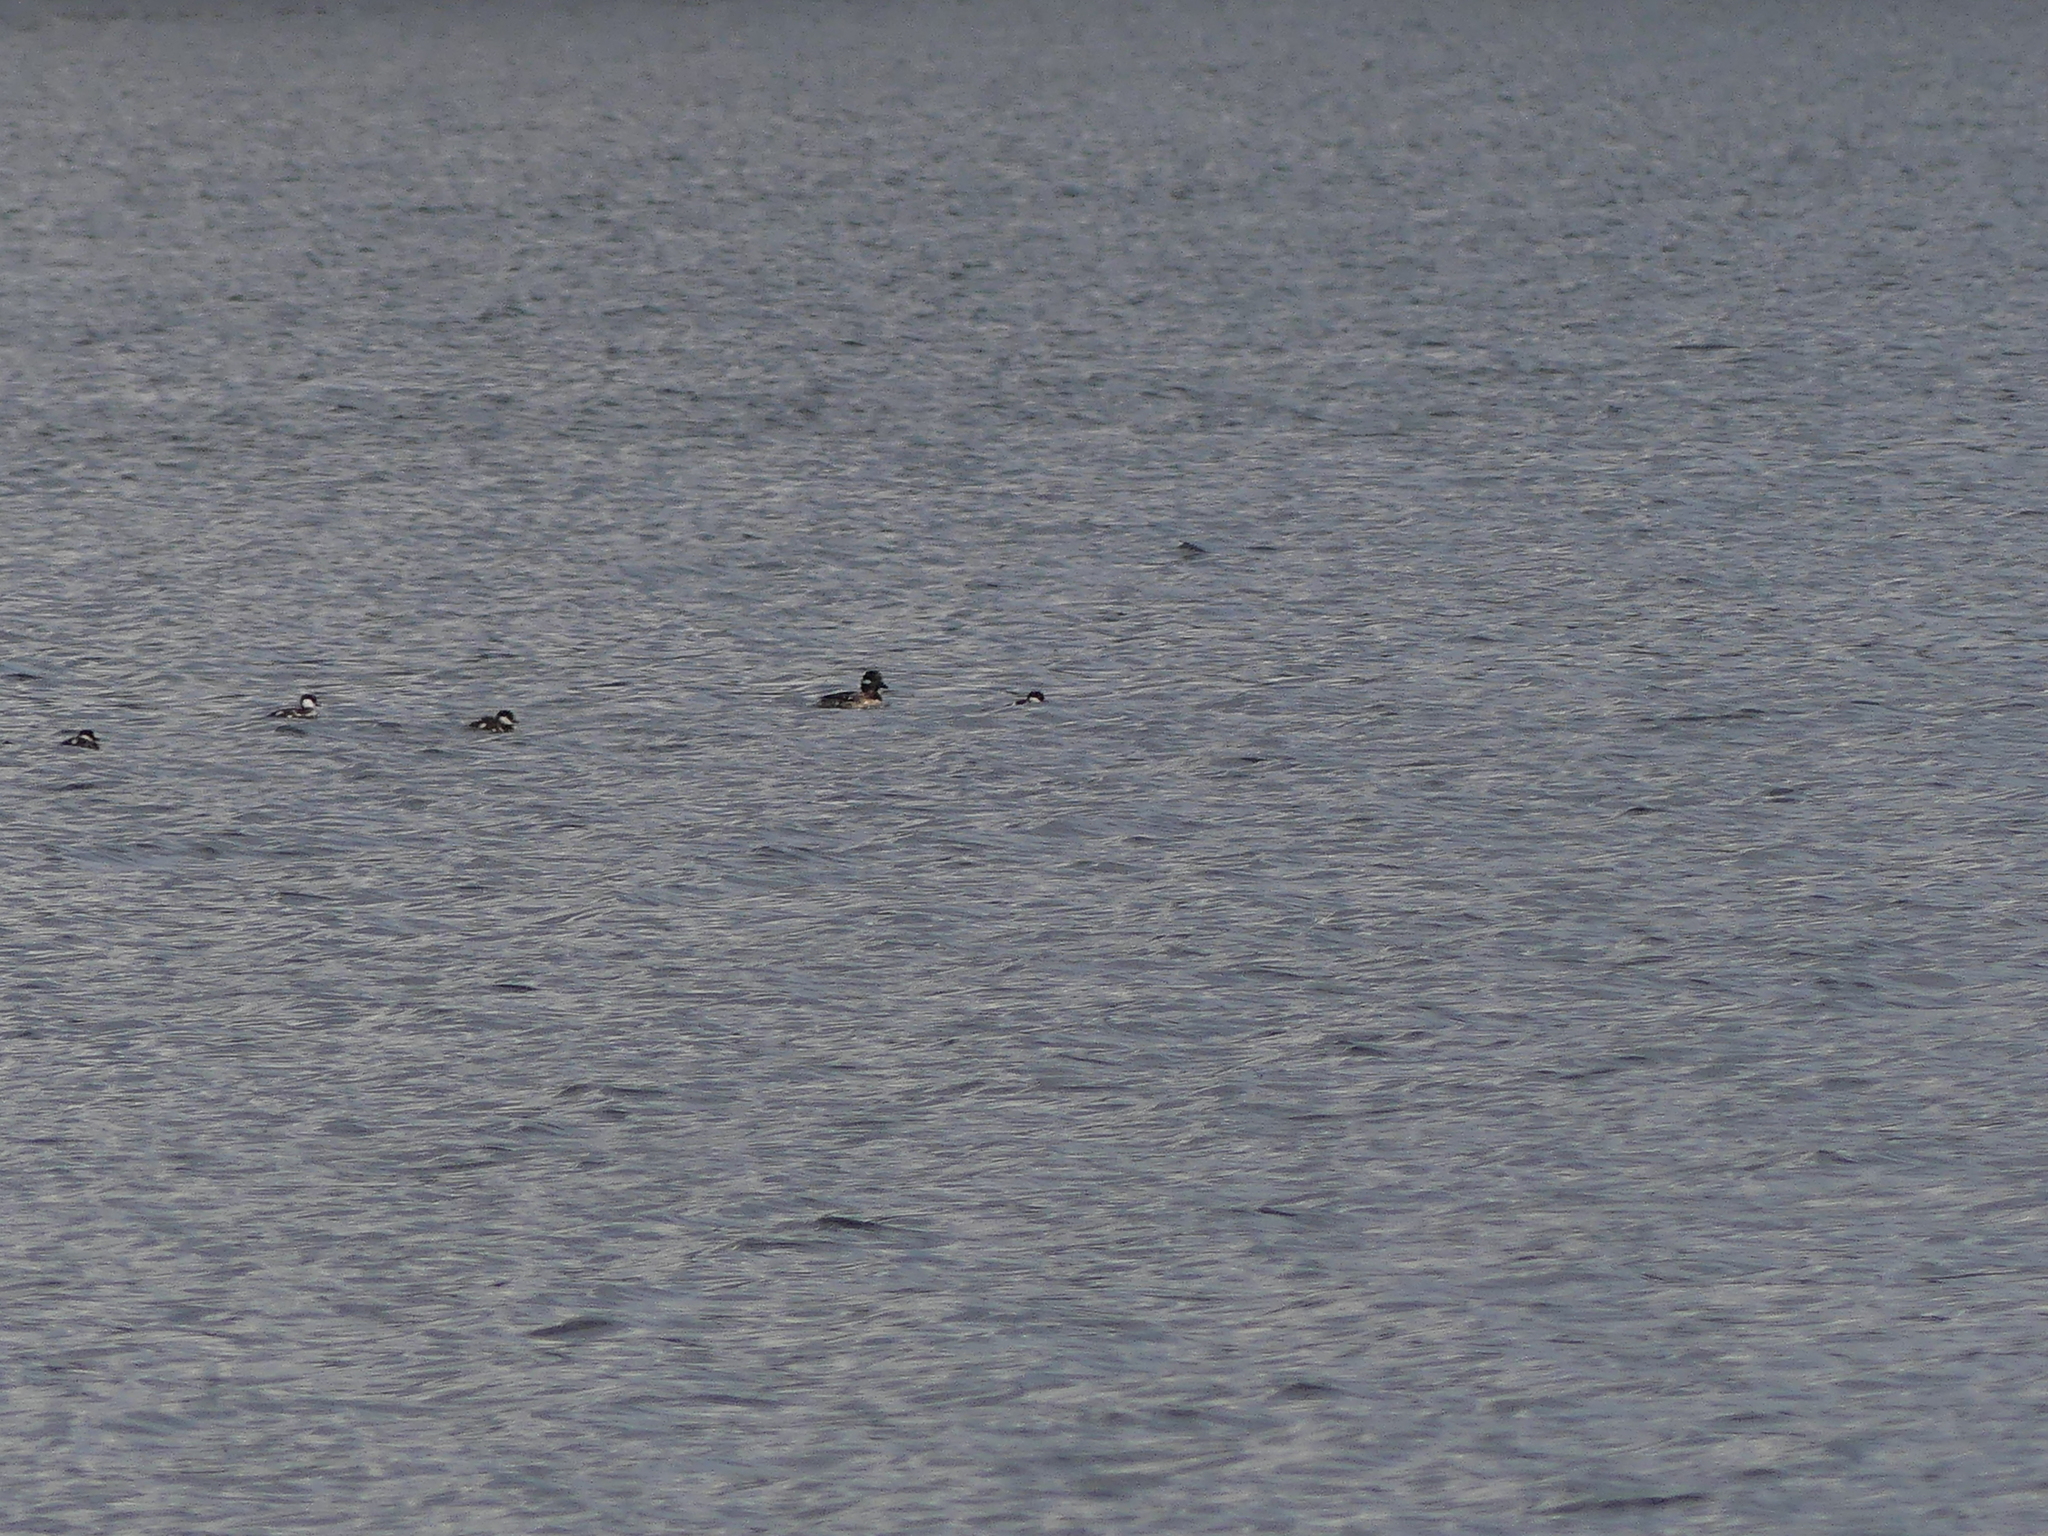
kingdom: Animalia
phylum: Chordata
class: Aves
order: Anseriformes
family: Anatidae
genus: Bucephala
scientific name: Bucephala albeola
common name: Bufflehead
